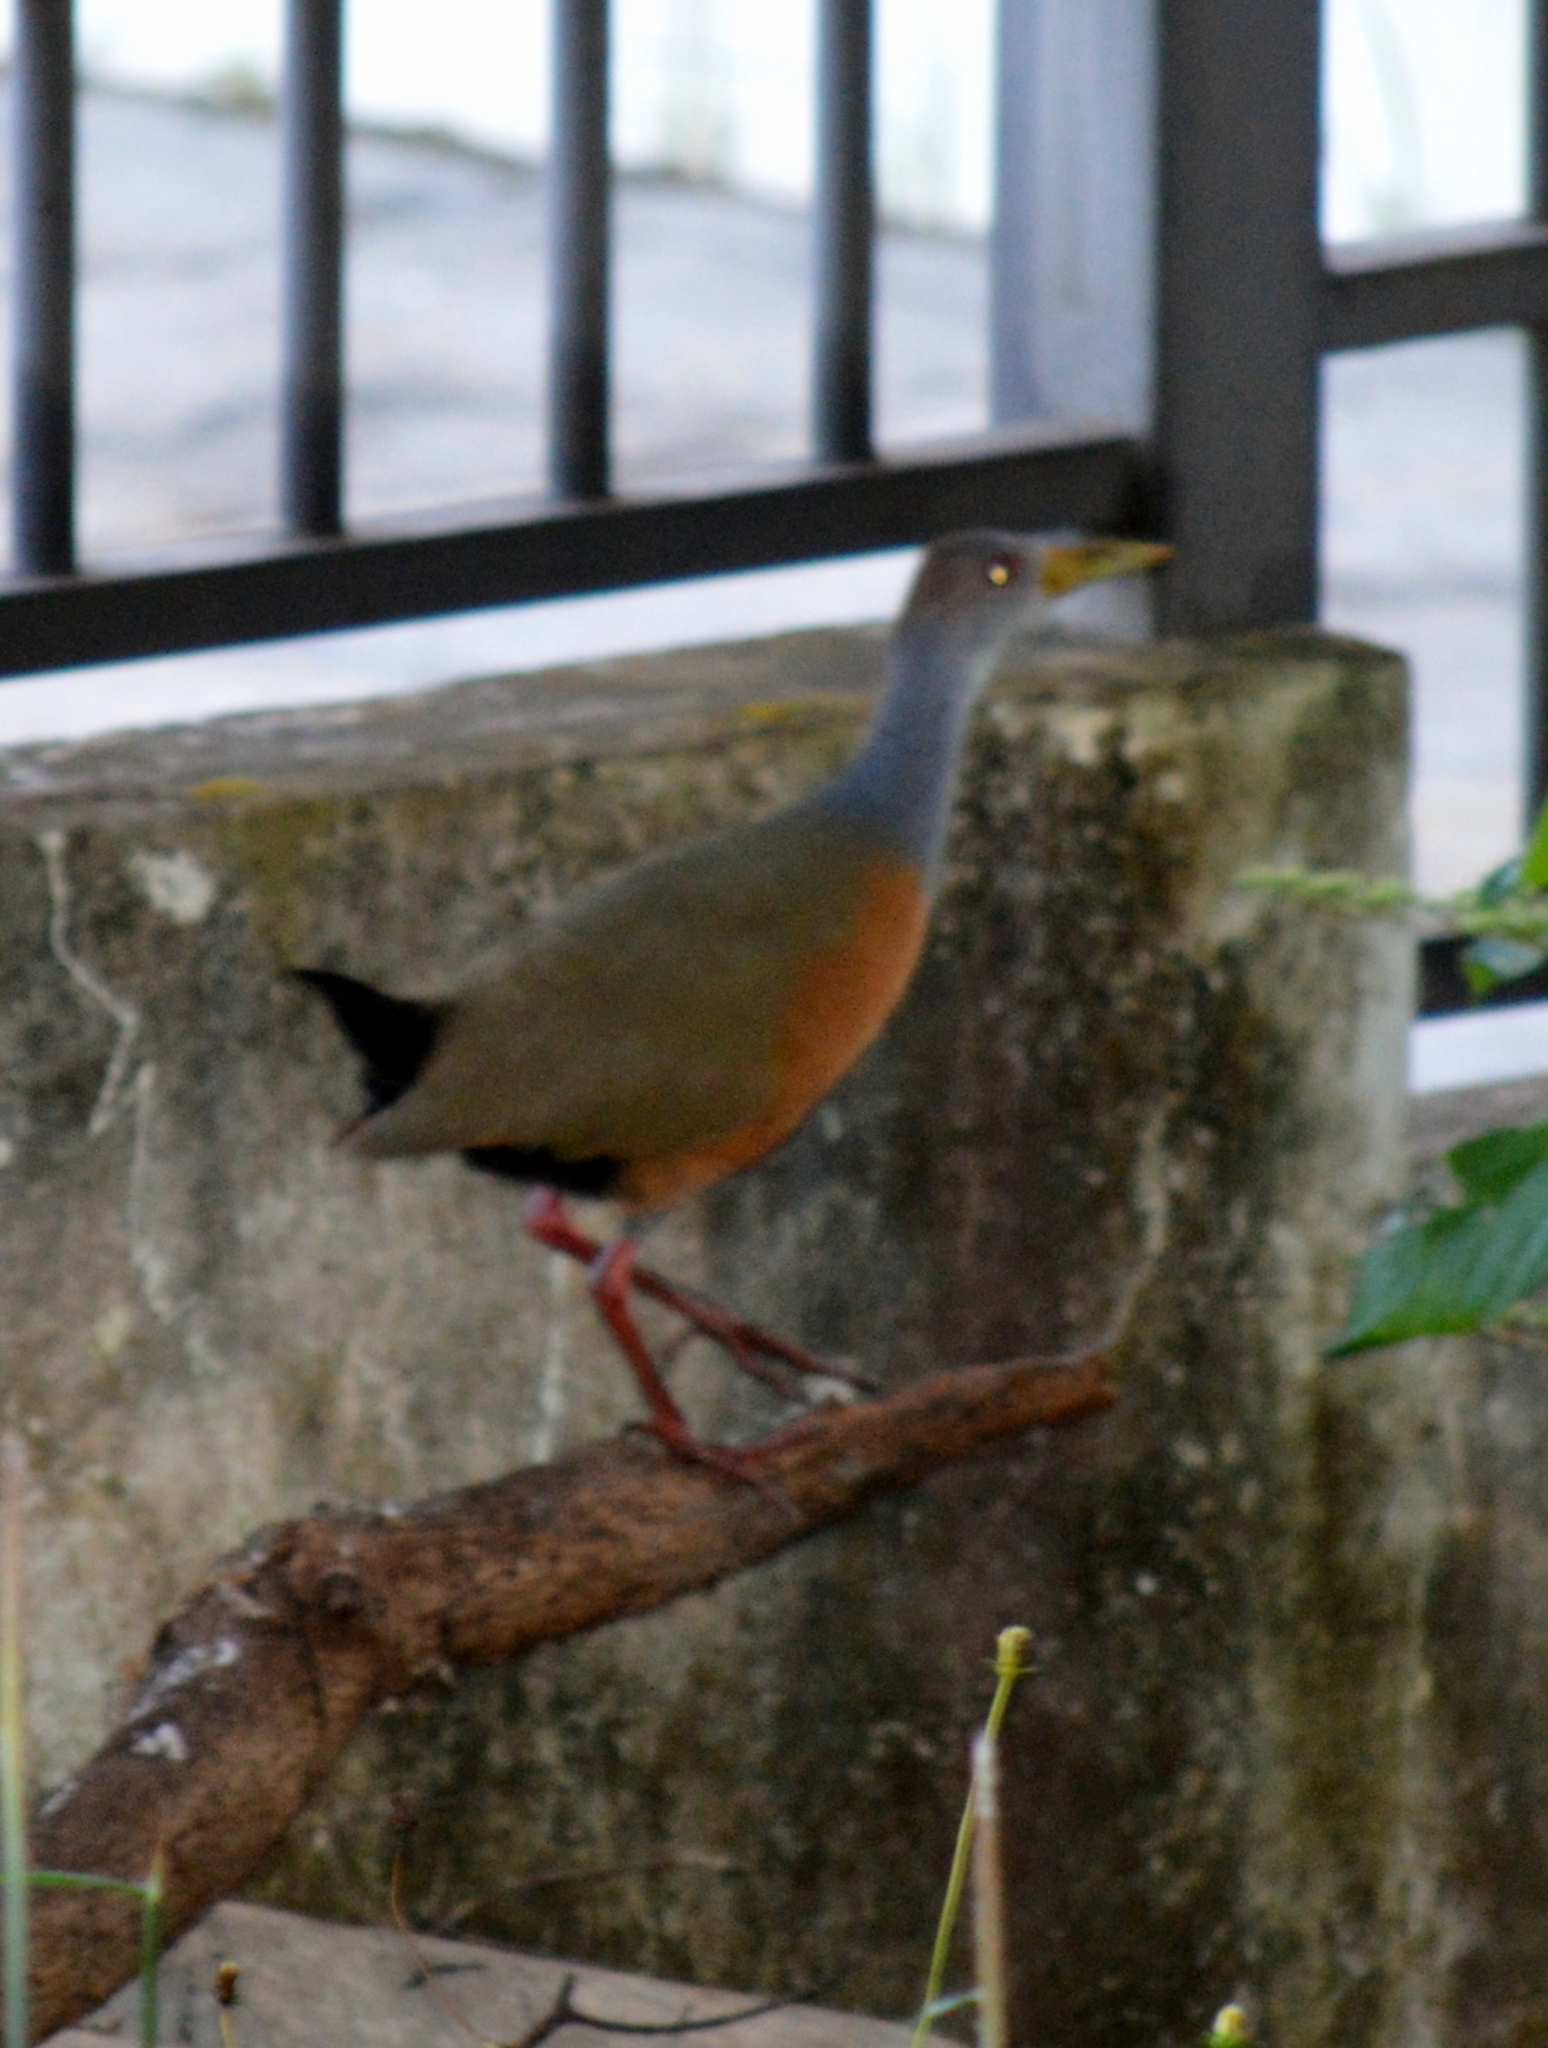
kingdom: Animalia
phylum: Chordata
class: Aves
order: Gruiformes
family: Rallidae
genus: Aramides
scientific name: Aramides cajanea
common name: Gray-necked wood-rail
